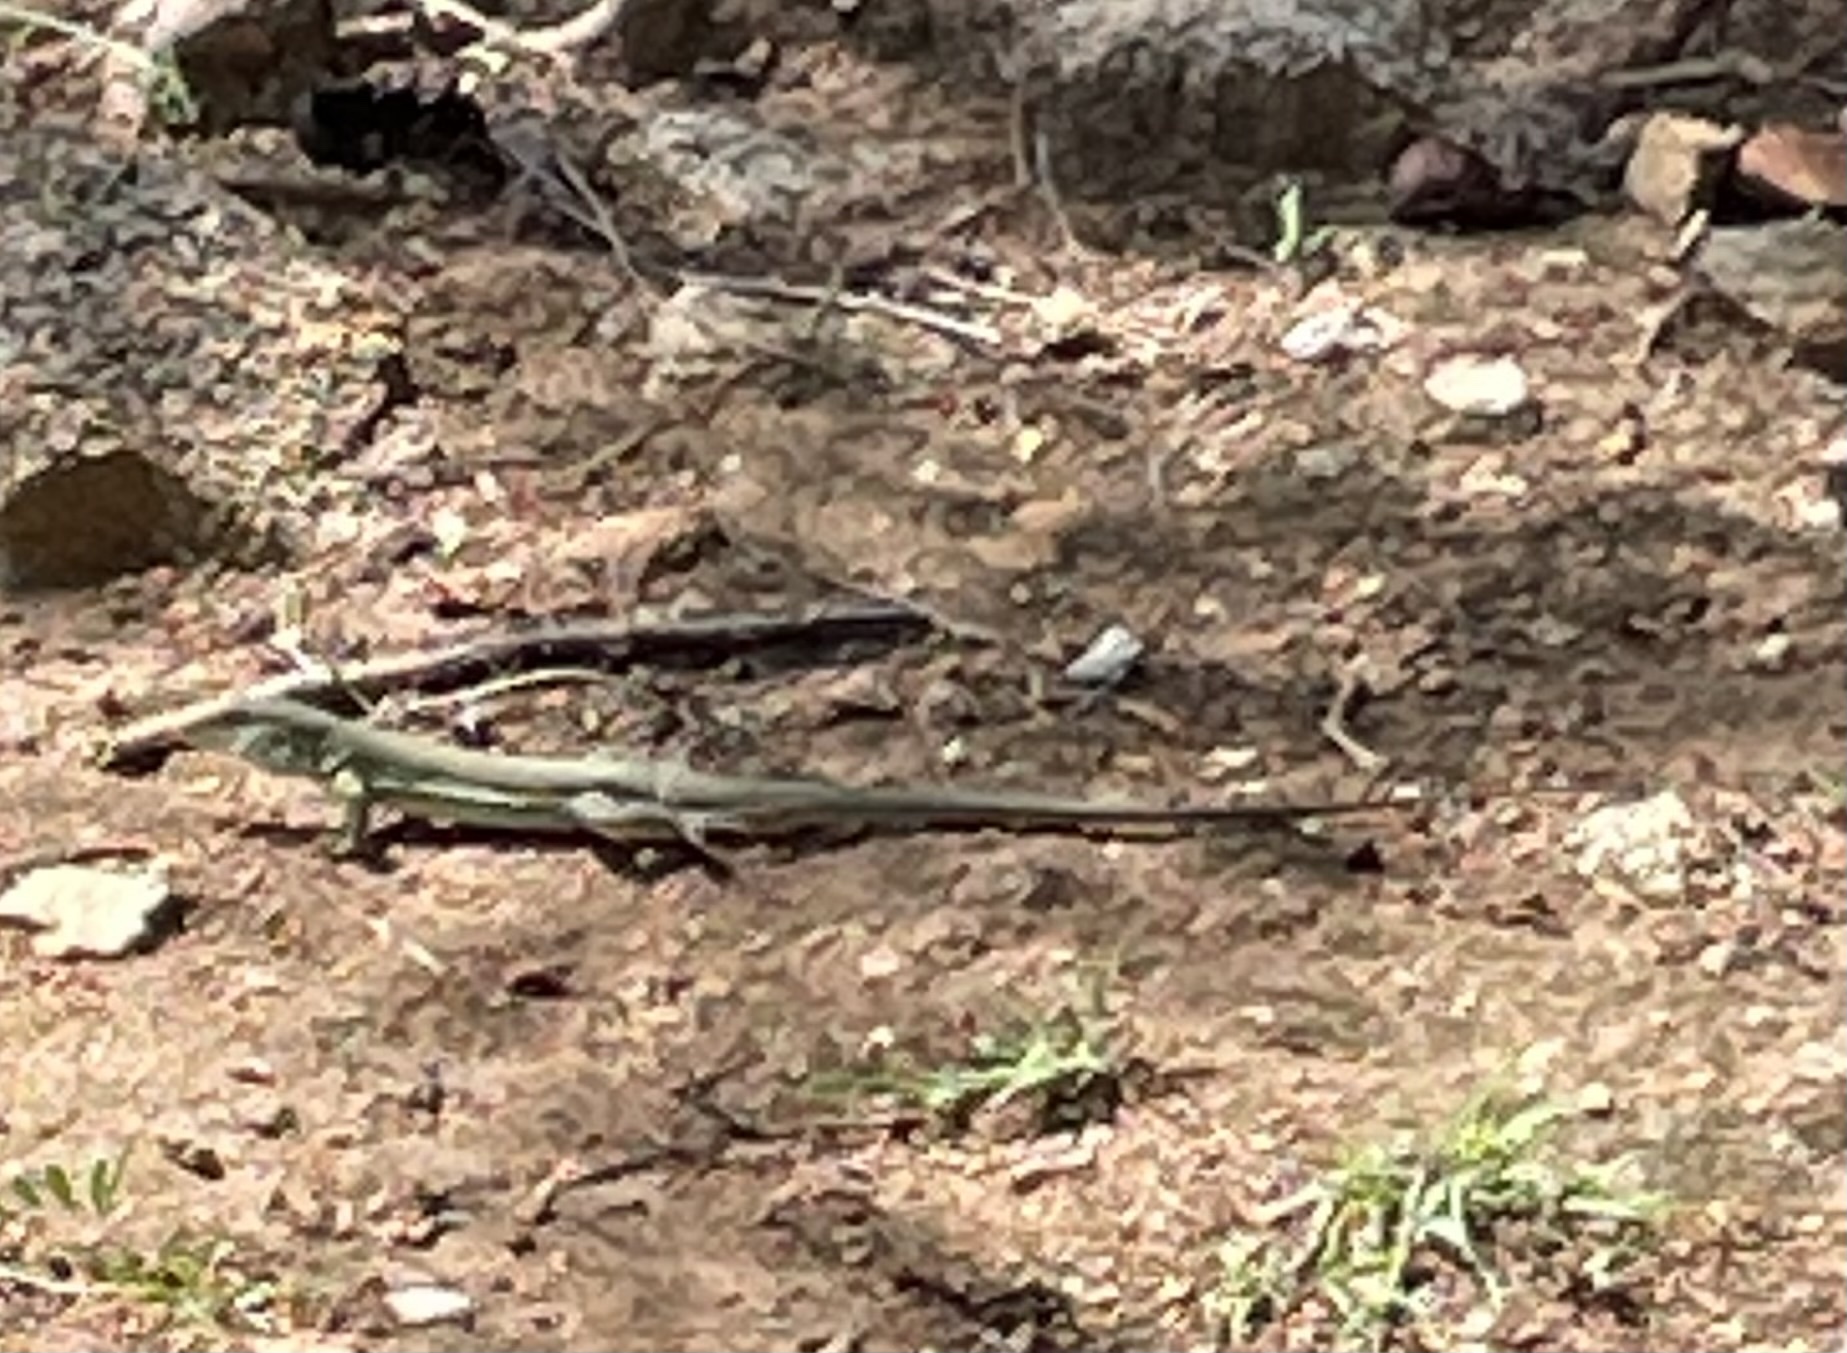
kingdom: Animalia
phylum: Chordata
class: Squamata
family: Teiidae
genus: Ameiva
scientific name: Ameiva bifrontata
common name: Cope's ameiva
